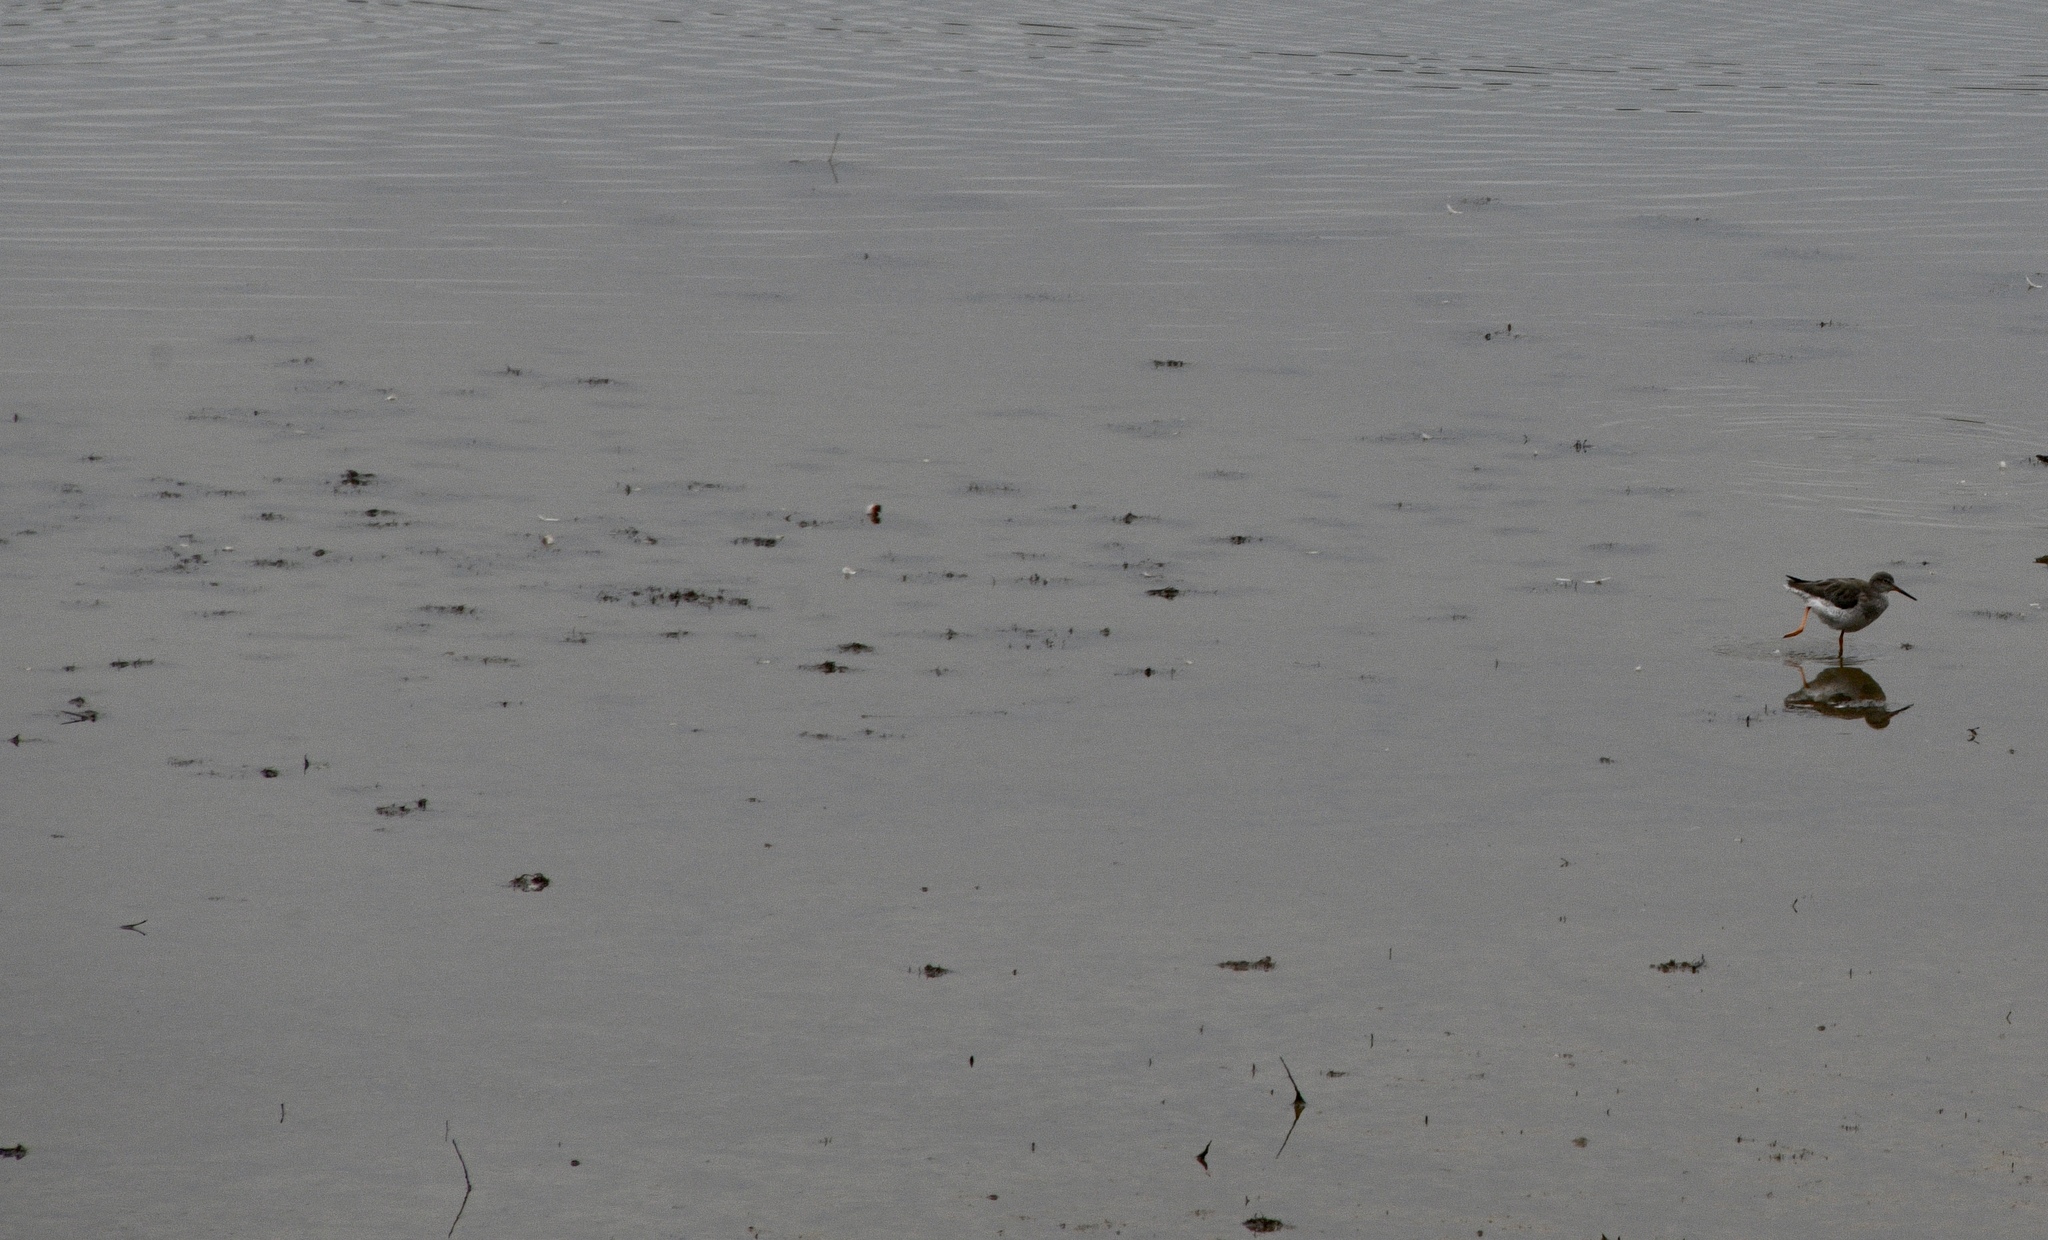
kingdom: Animalia
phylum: Chordata
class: Aves
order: Charadriiformes
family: Scolopacidae
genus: Tringa
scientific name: Tringa totanus
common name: Common redshank
